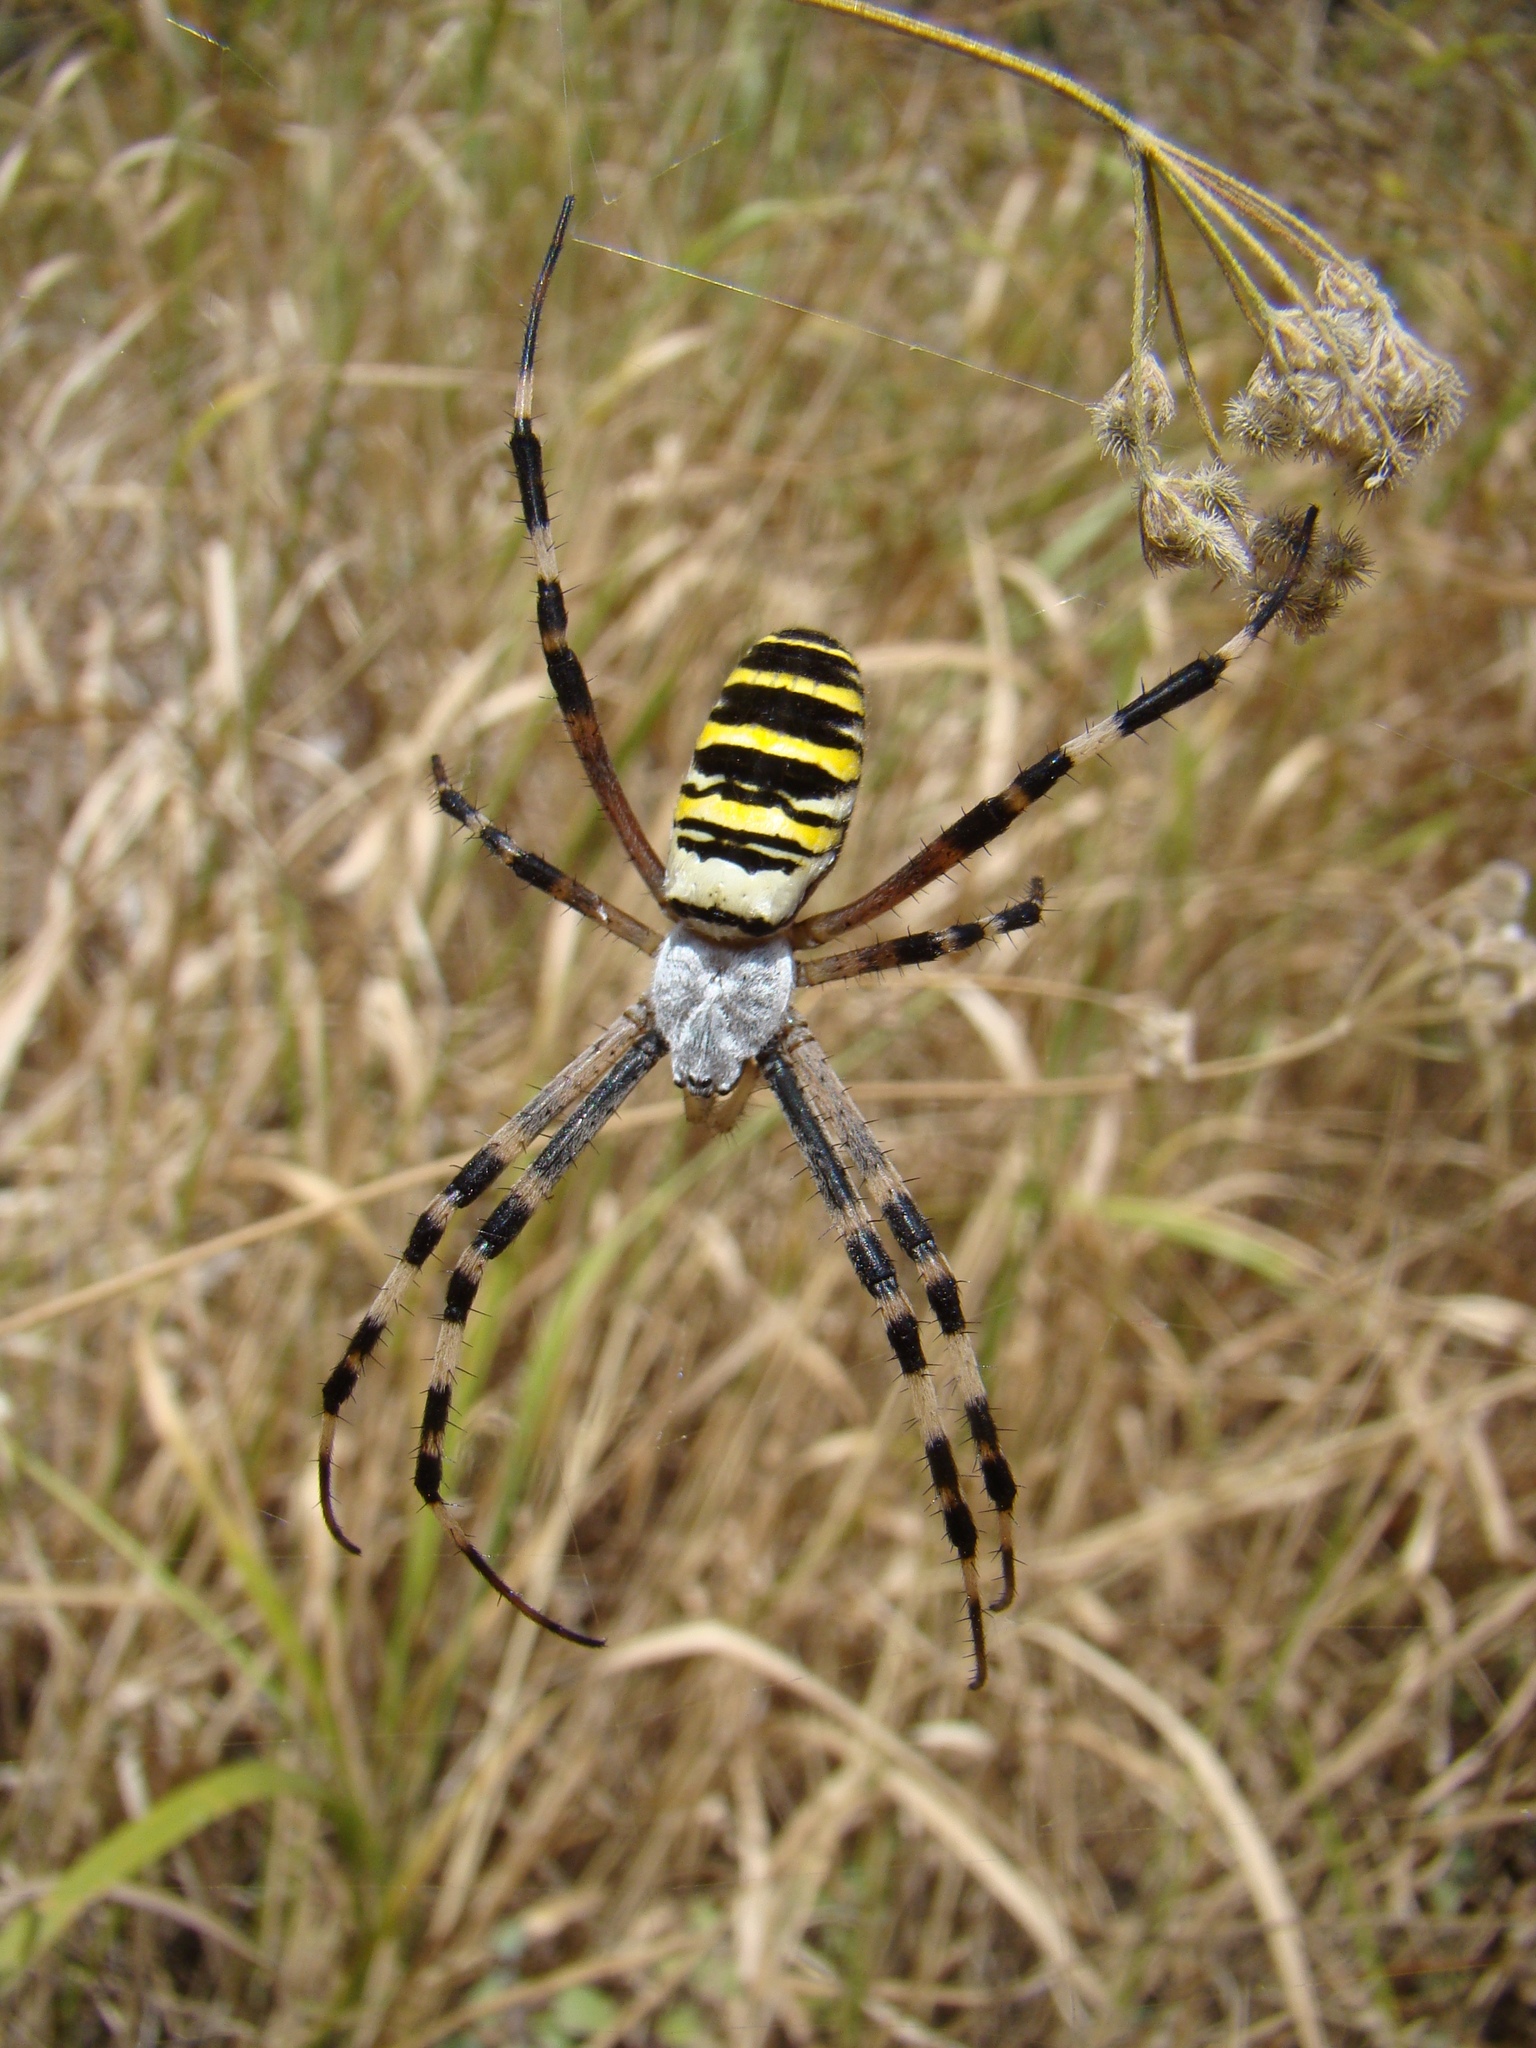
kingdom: Animalia
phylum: Arthropoda
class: Arachnida
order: Araneae
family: Araneidae
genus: Argiope
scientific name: Argiope bruennichi
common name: Wasp spider
